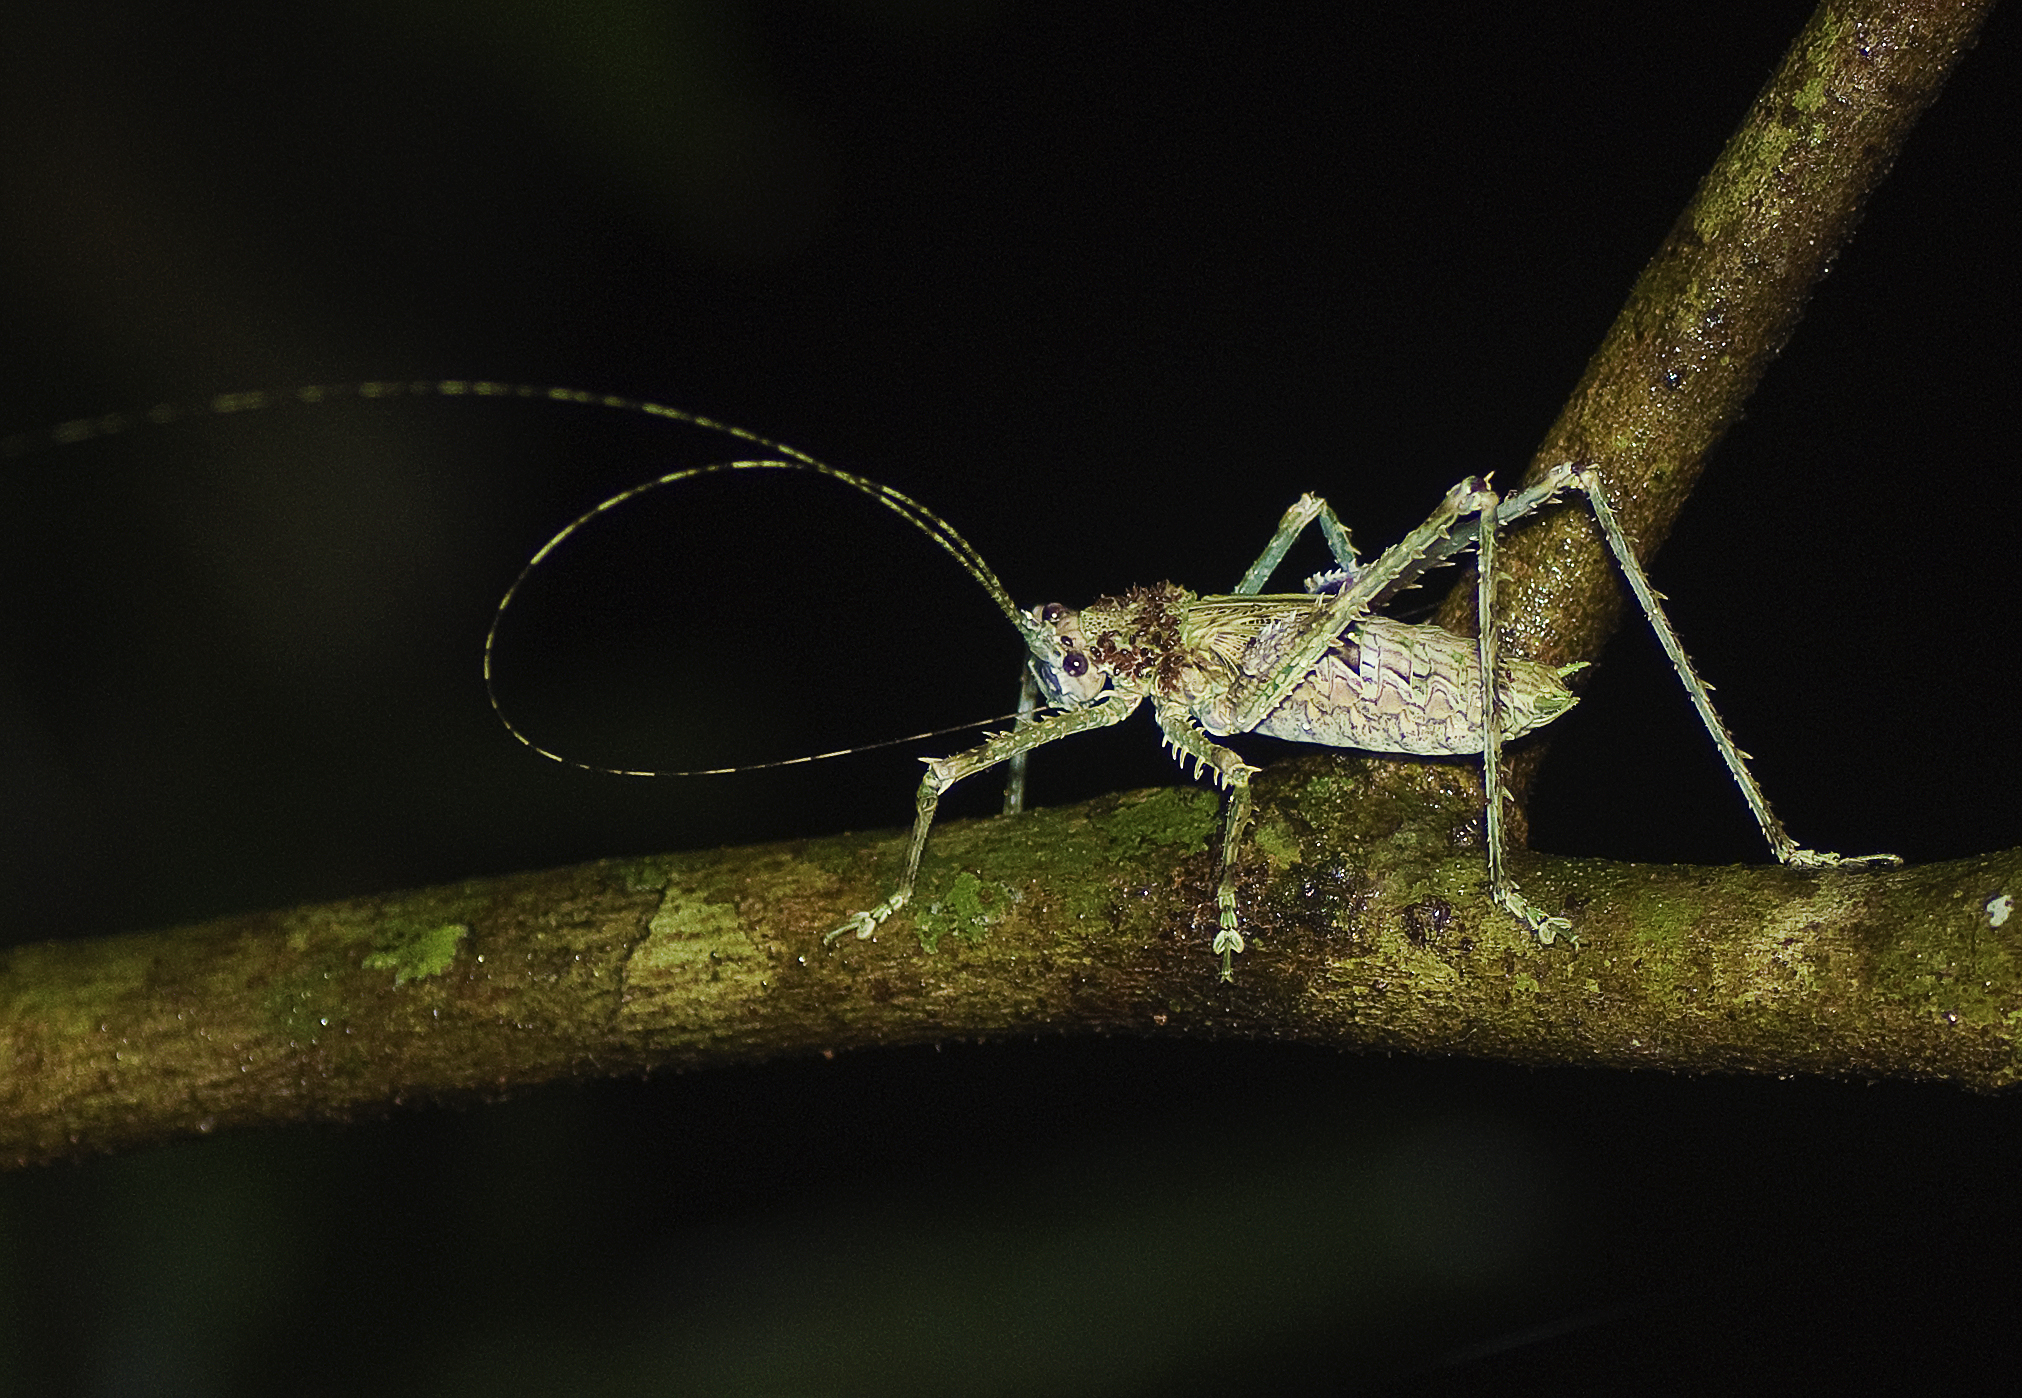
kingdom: Animalia
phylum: Arthropoda
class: Insecta
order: Orthoptera
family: Tettigoniidae
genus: Phricta
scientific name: Phricta spinosa
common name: Giant spiny forest katydid
